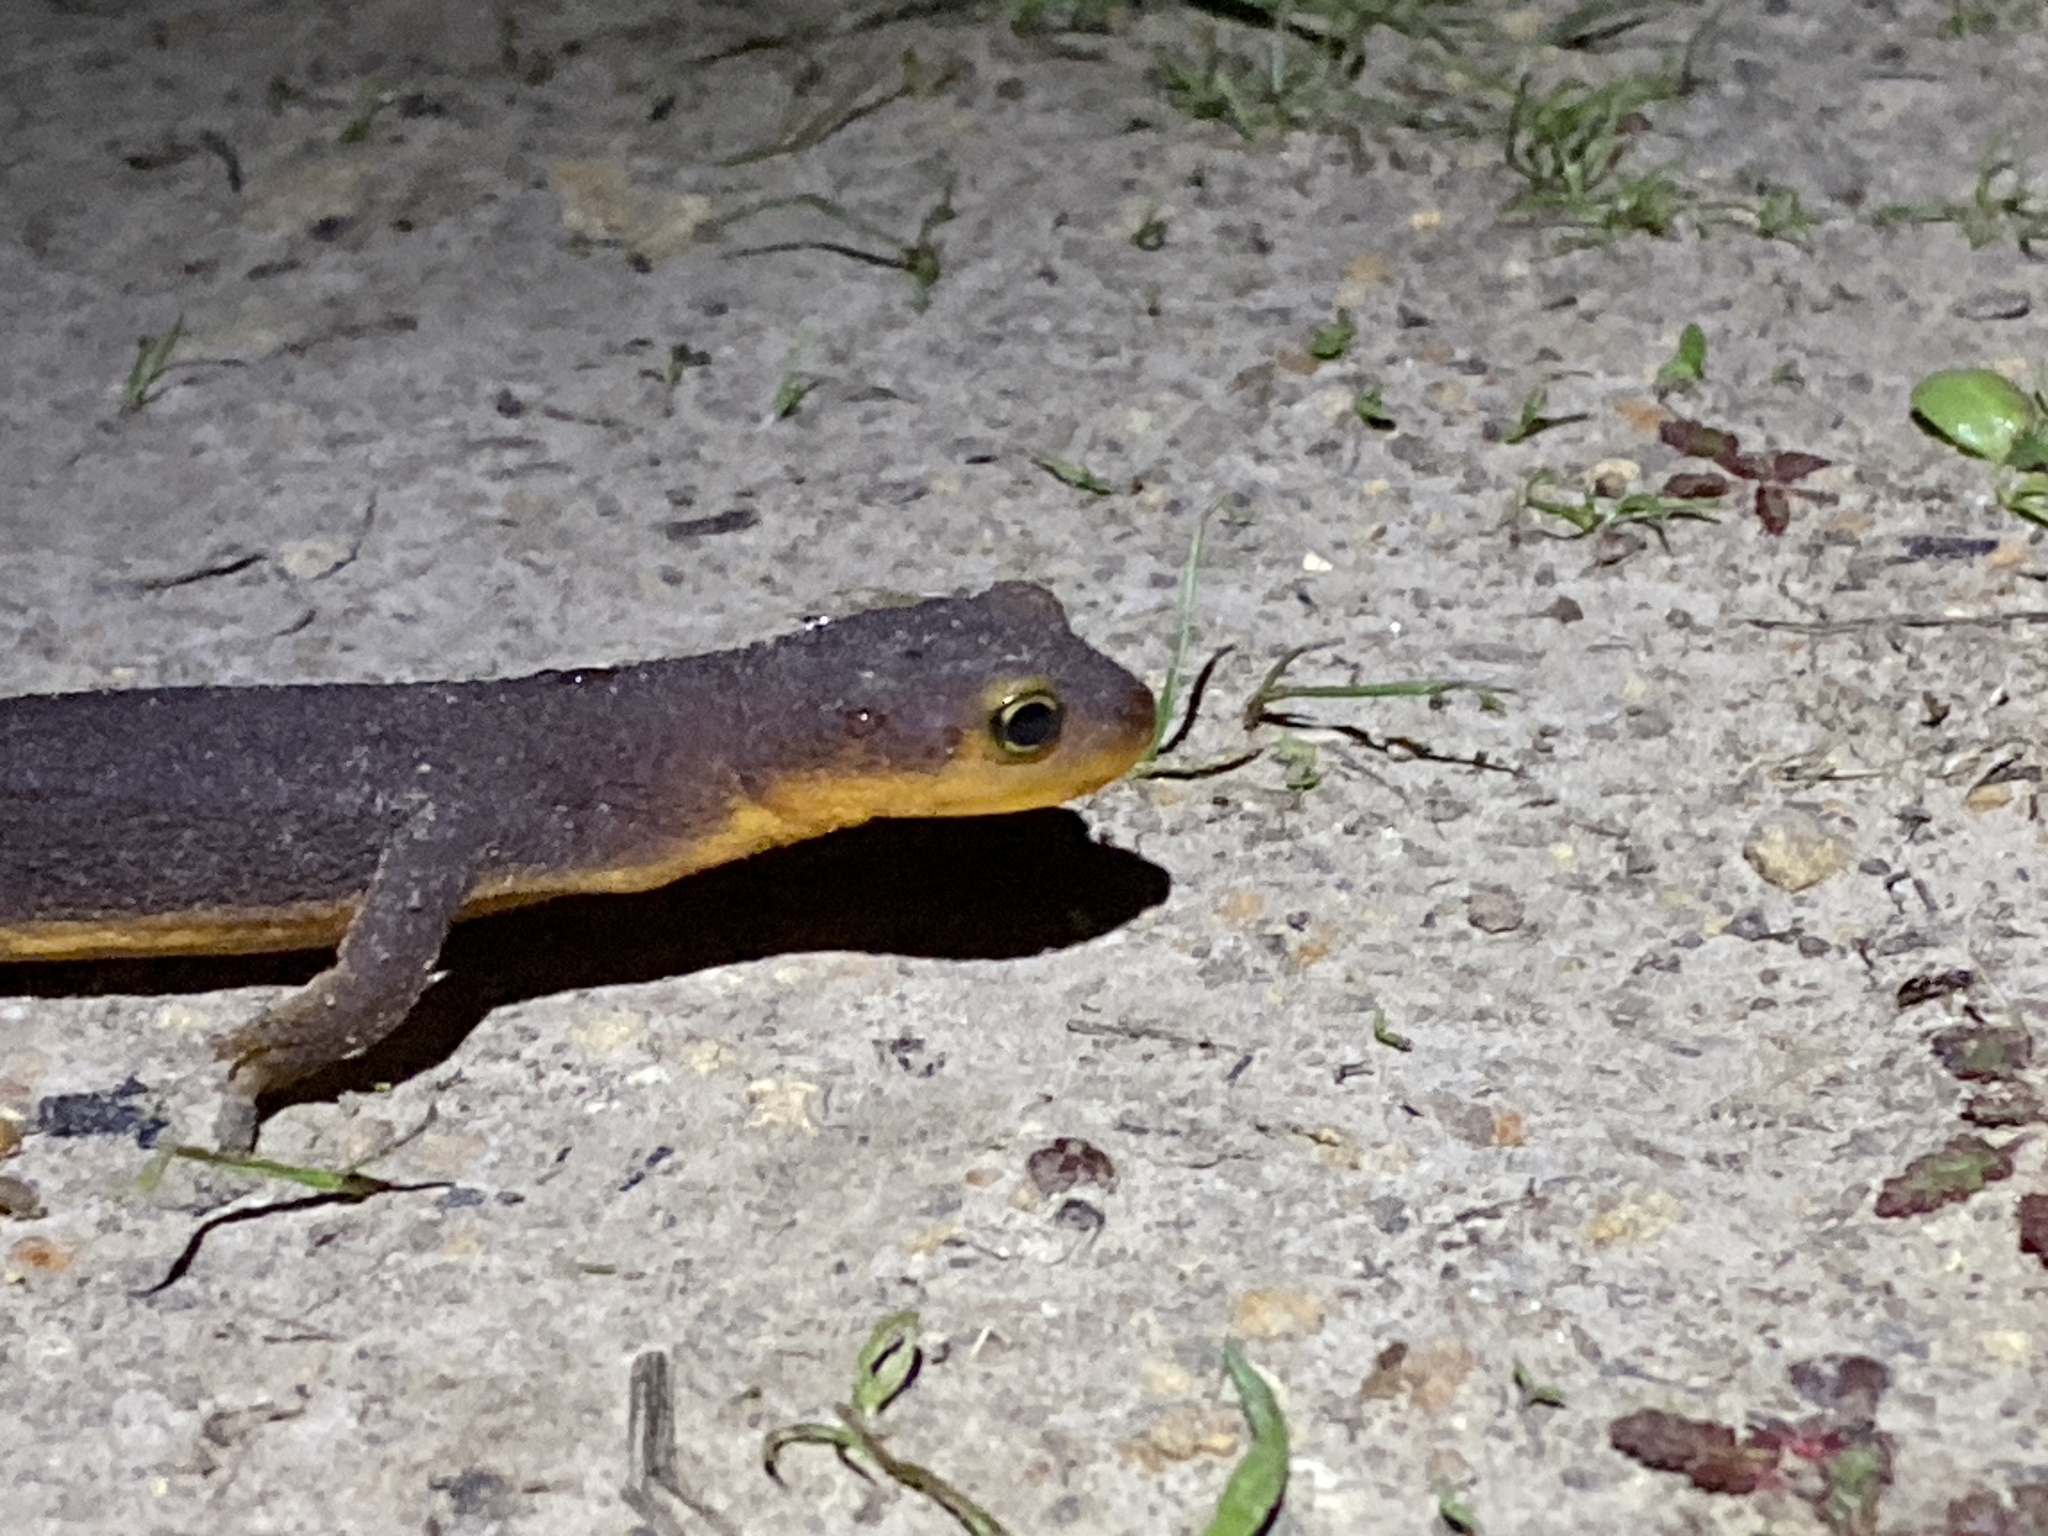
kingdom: Animalia
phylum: Chordata
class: Amphibia
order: Caudata
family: Salamandridae
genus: Taricha
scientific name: Taricha torosa
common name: California newt
